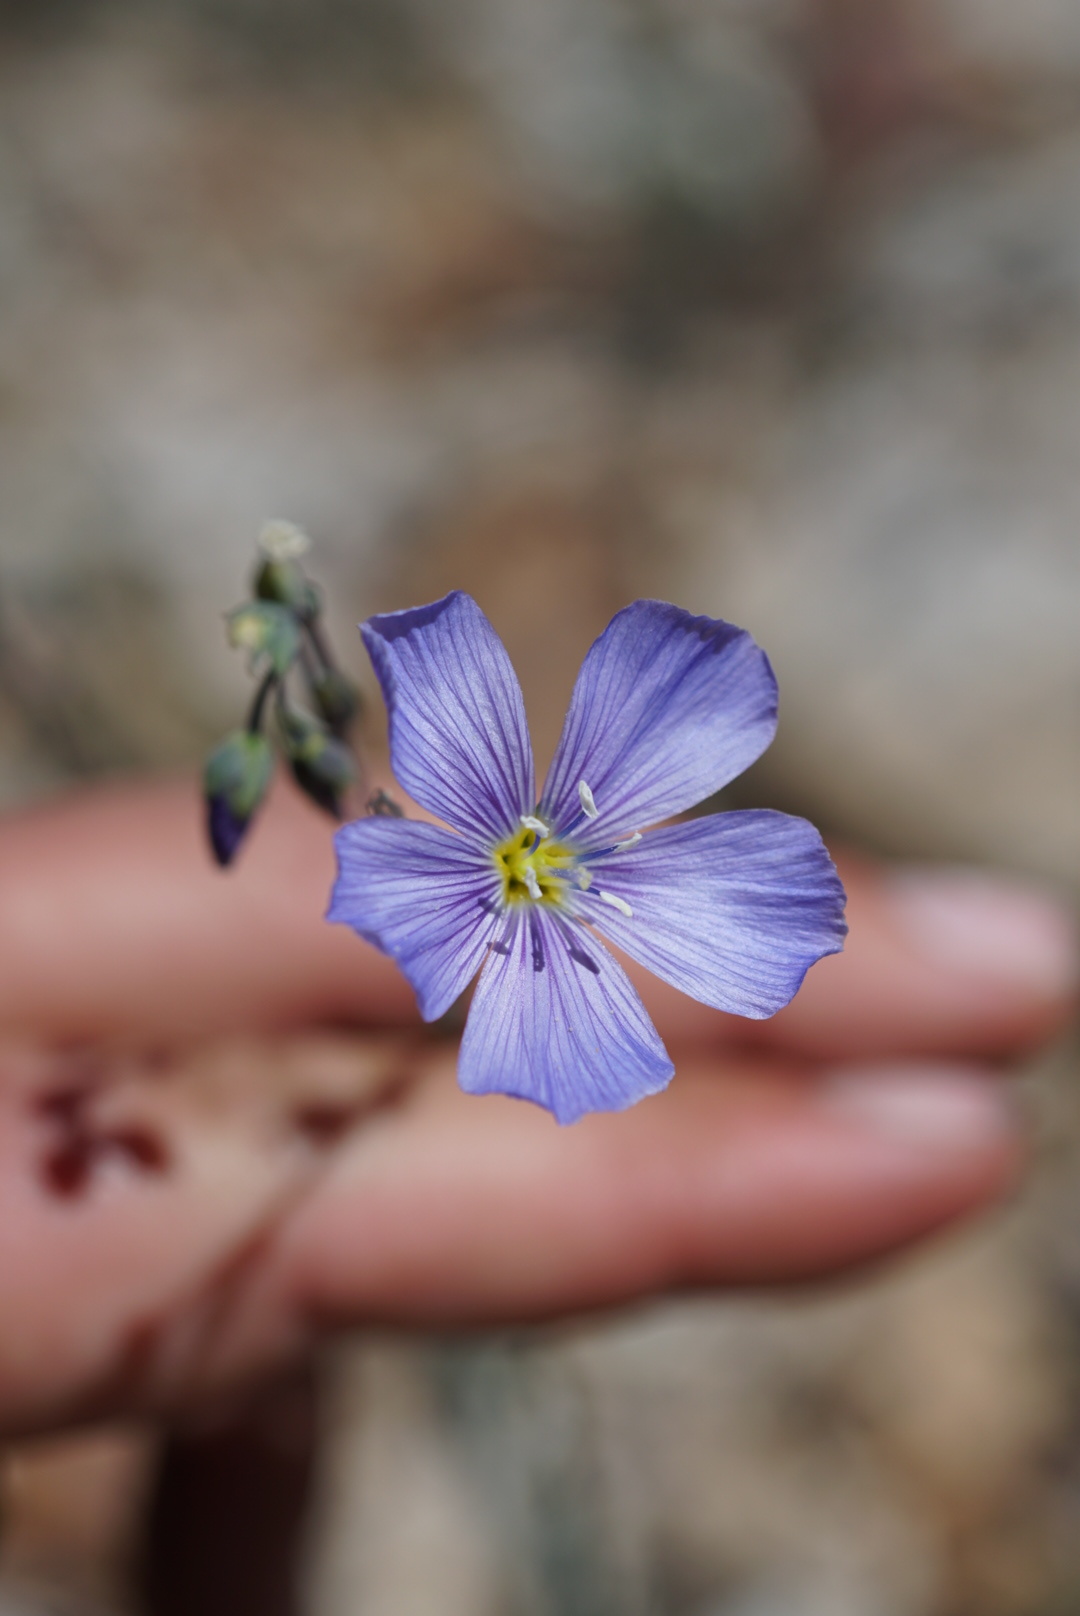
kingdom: Plantae
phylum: Tracheophyta
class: Magnoliopsida
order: Malpighiales
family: Linaceae
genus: Linum
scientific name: Linum lewisii
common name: Prairie flax
